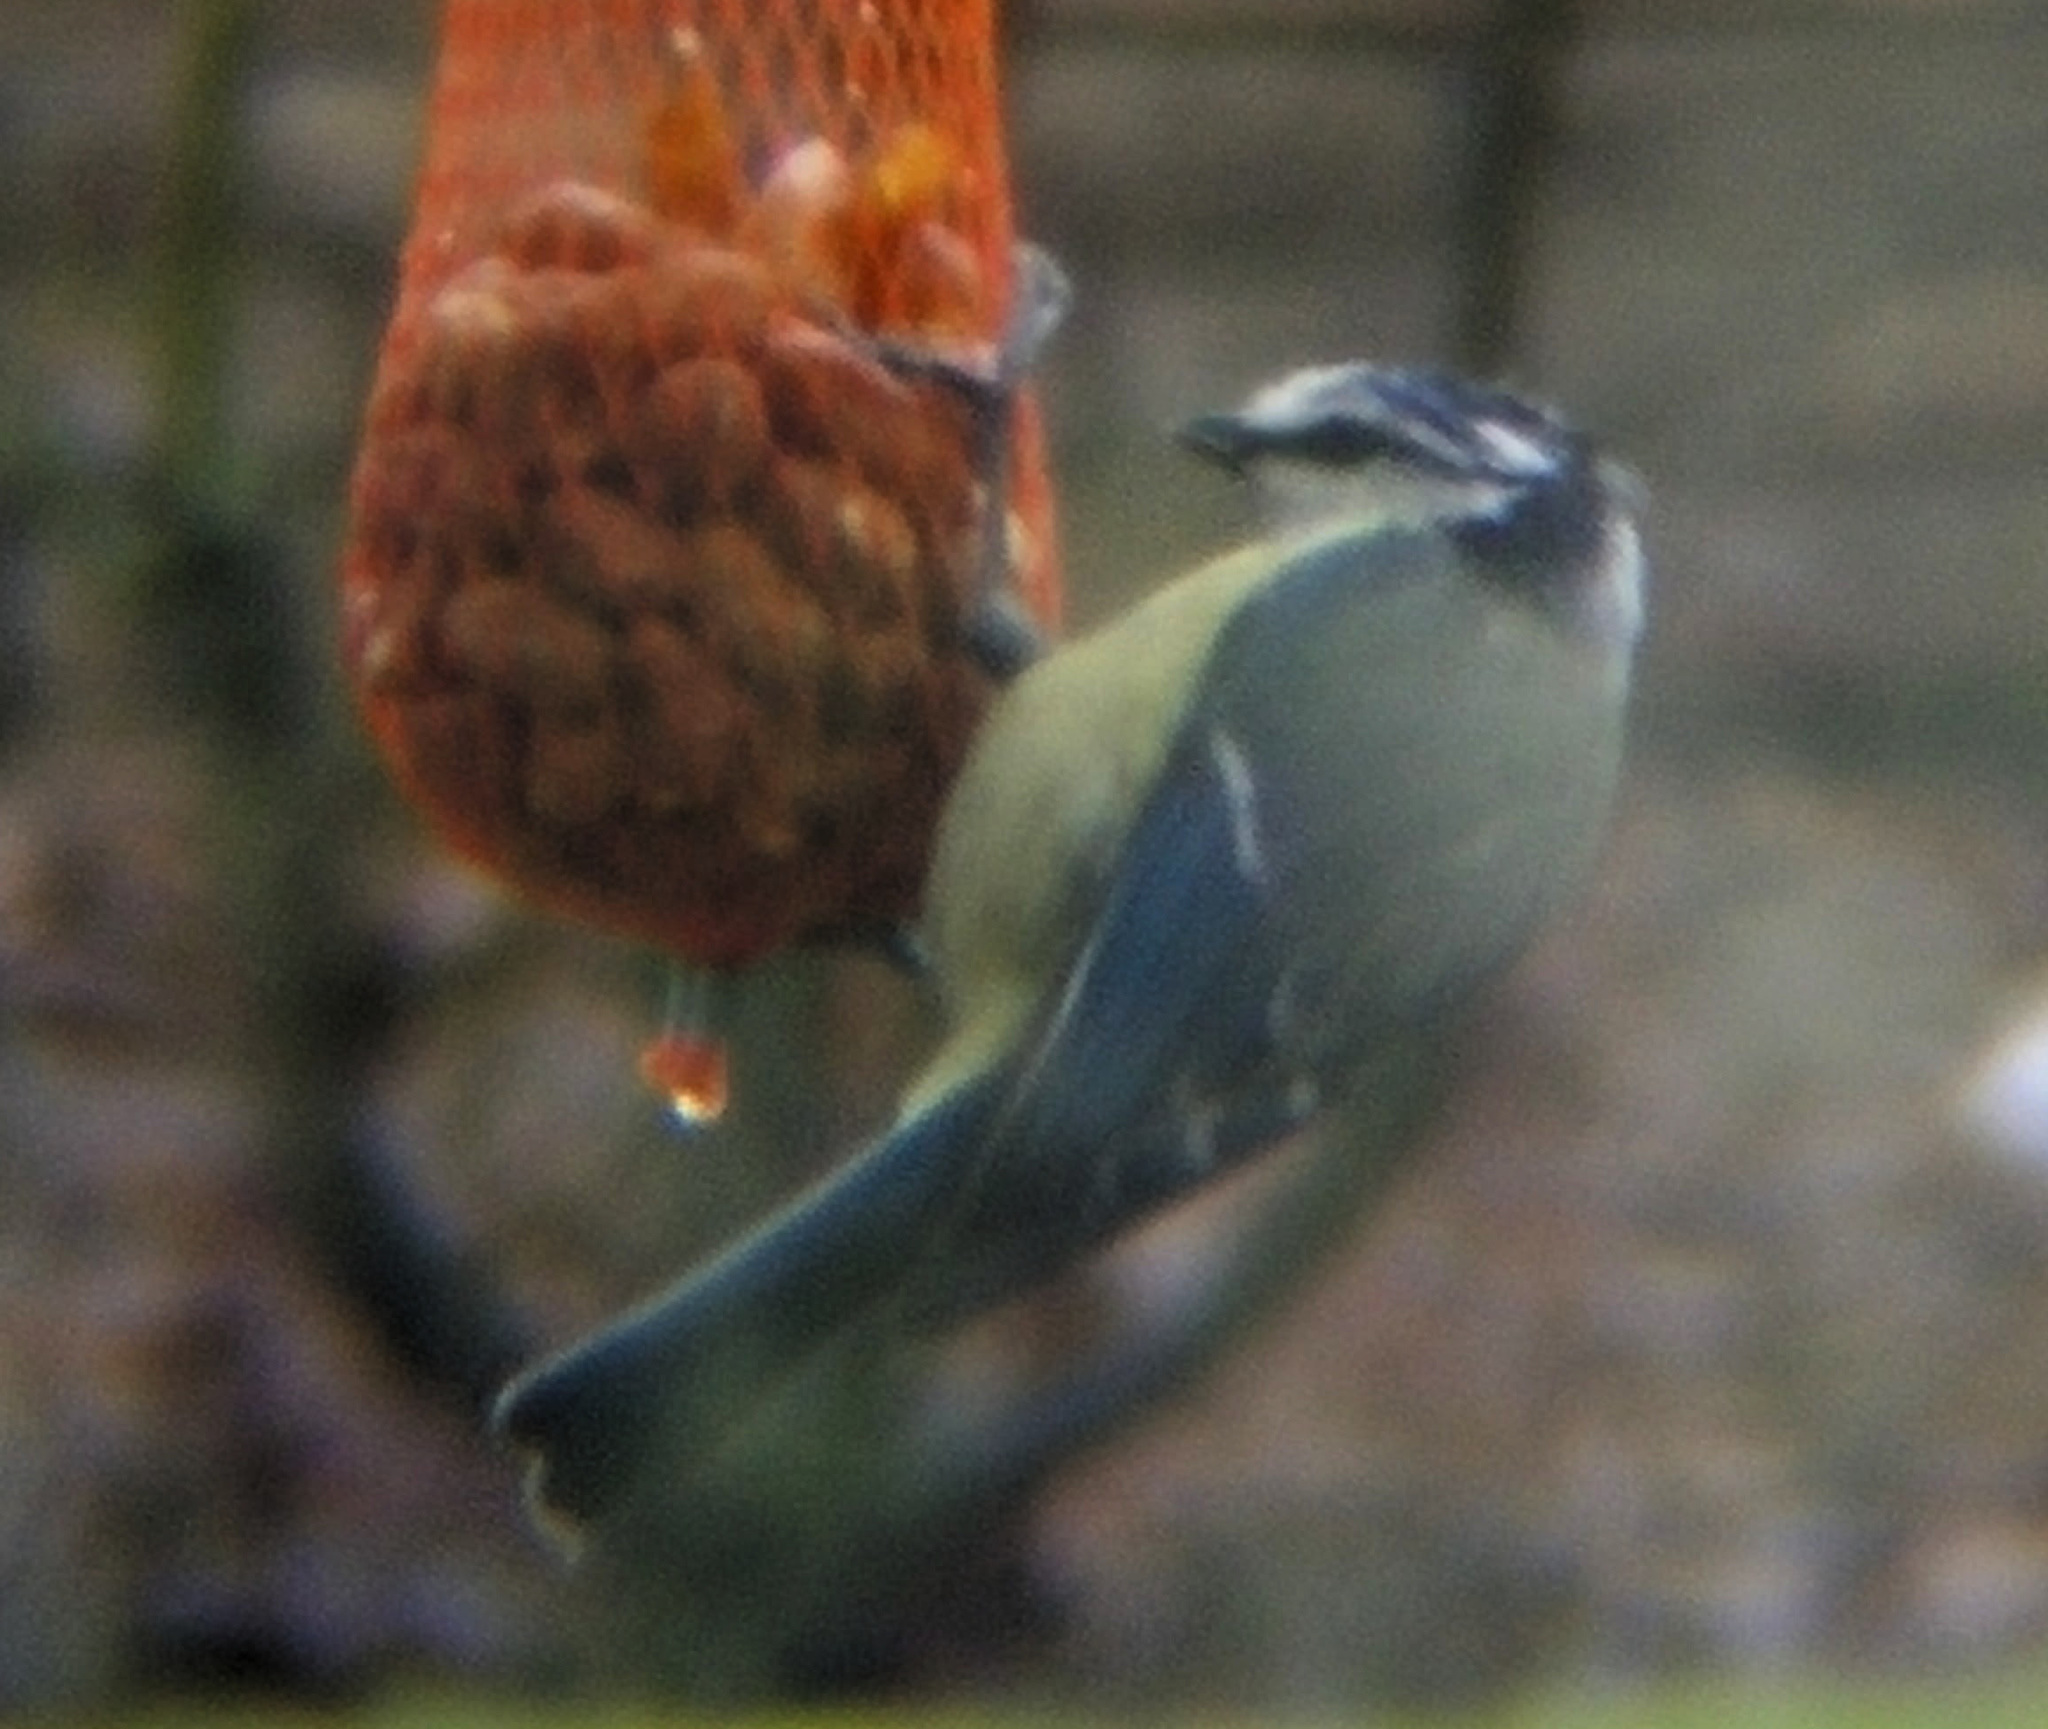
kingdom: Animalia
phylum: Chordata
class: Aves
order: Passeriformes
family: Paridae
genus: Cyanistes
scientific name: Cyanistes caeruleus
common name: Eurasian blue tit
